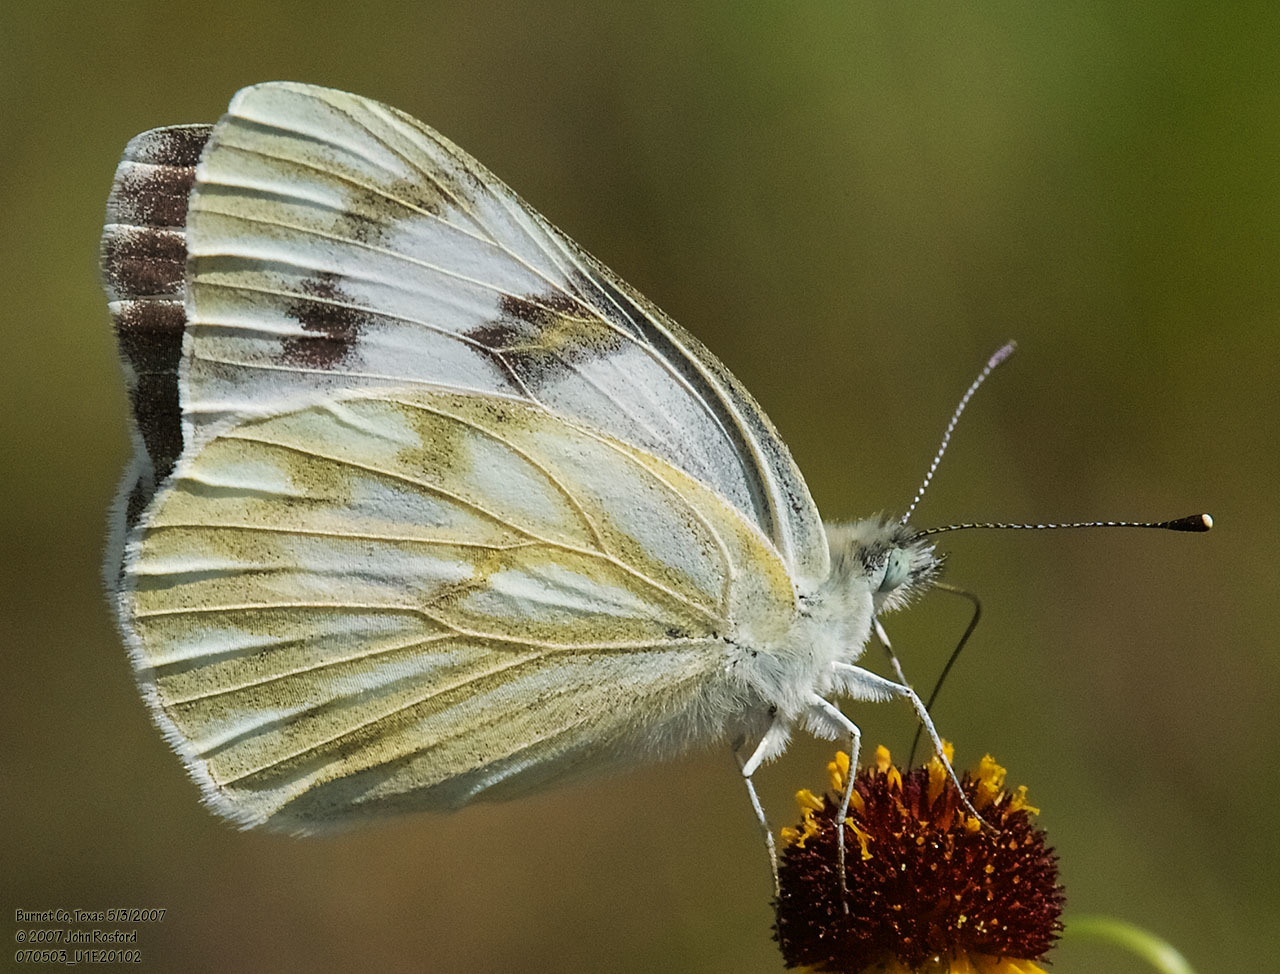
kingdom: Animalia
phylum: Arthropoda
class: Insecta
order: Lepidoptera
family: Pieridae
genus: Pontia
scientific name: Pontia protodice
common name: Checkered white
